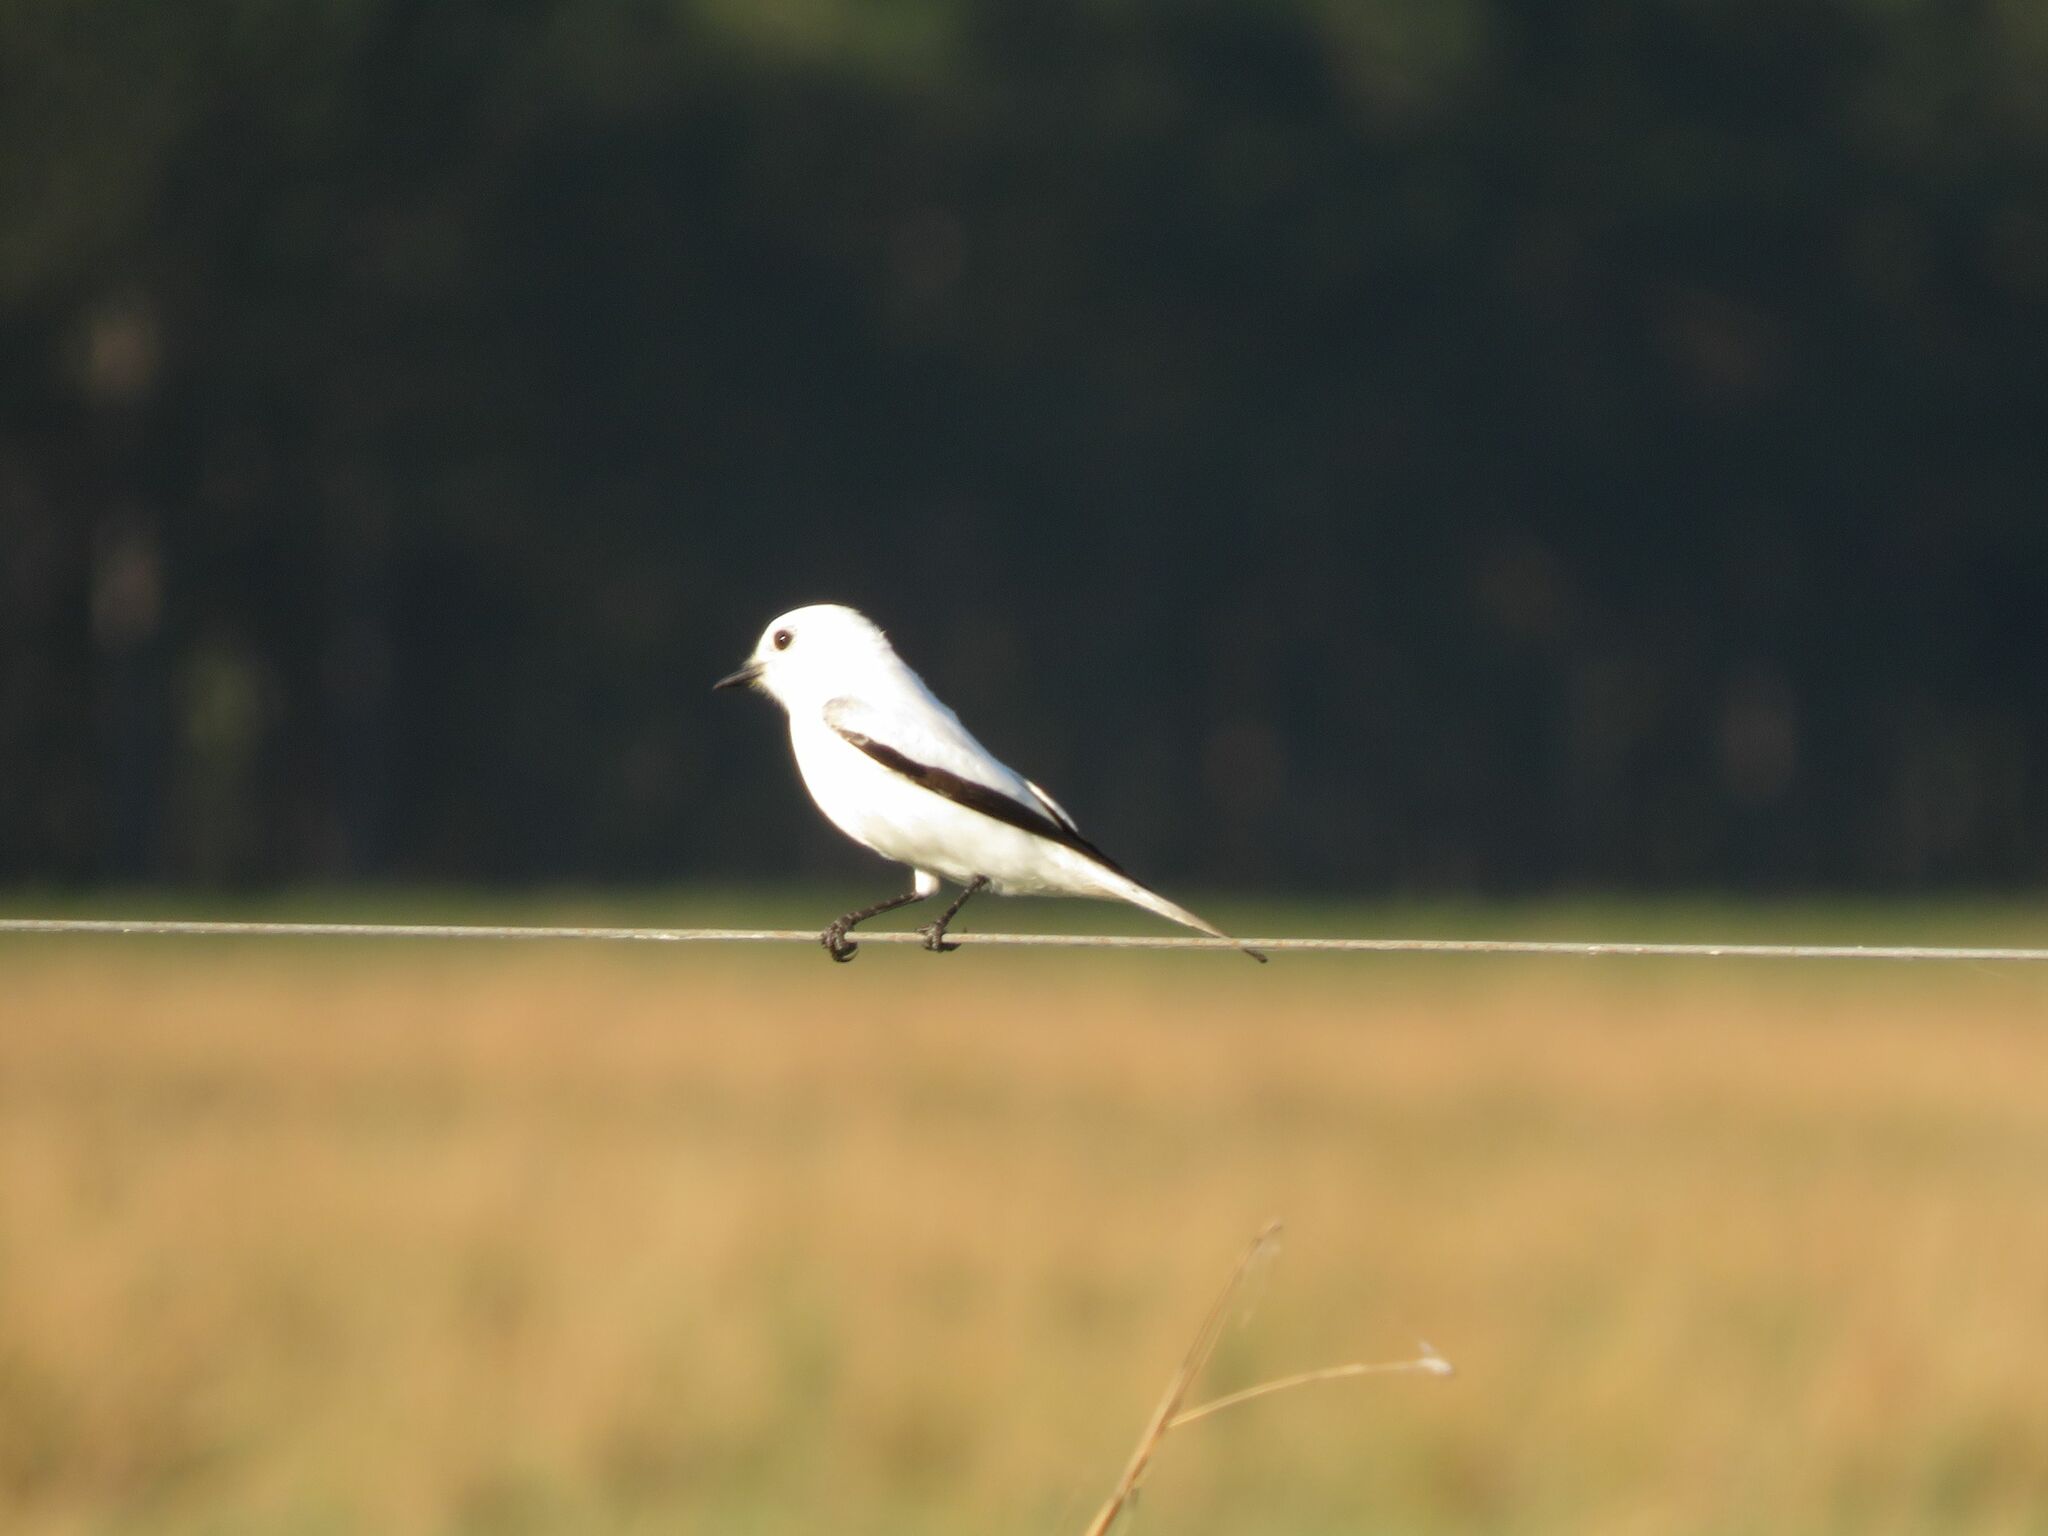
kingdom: Animalia
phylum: Chordata
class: Aves
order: Passeriformes
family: Tyrannidae
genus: Xolmis
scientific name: Xolmis irupero
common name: White monjita
